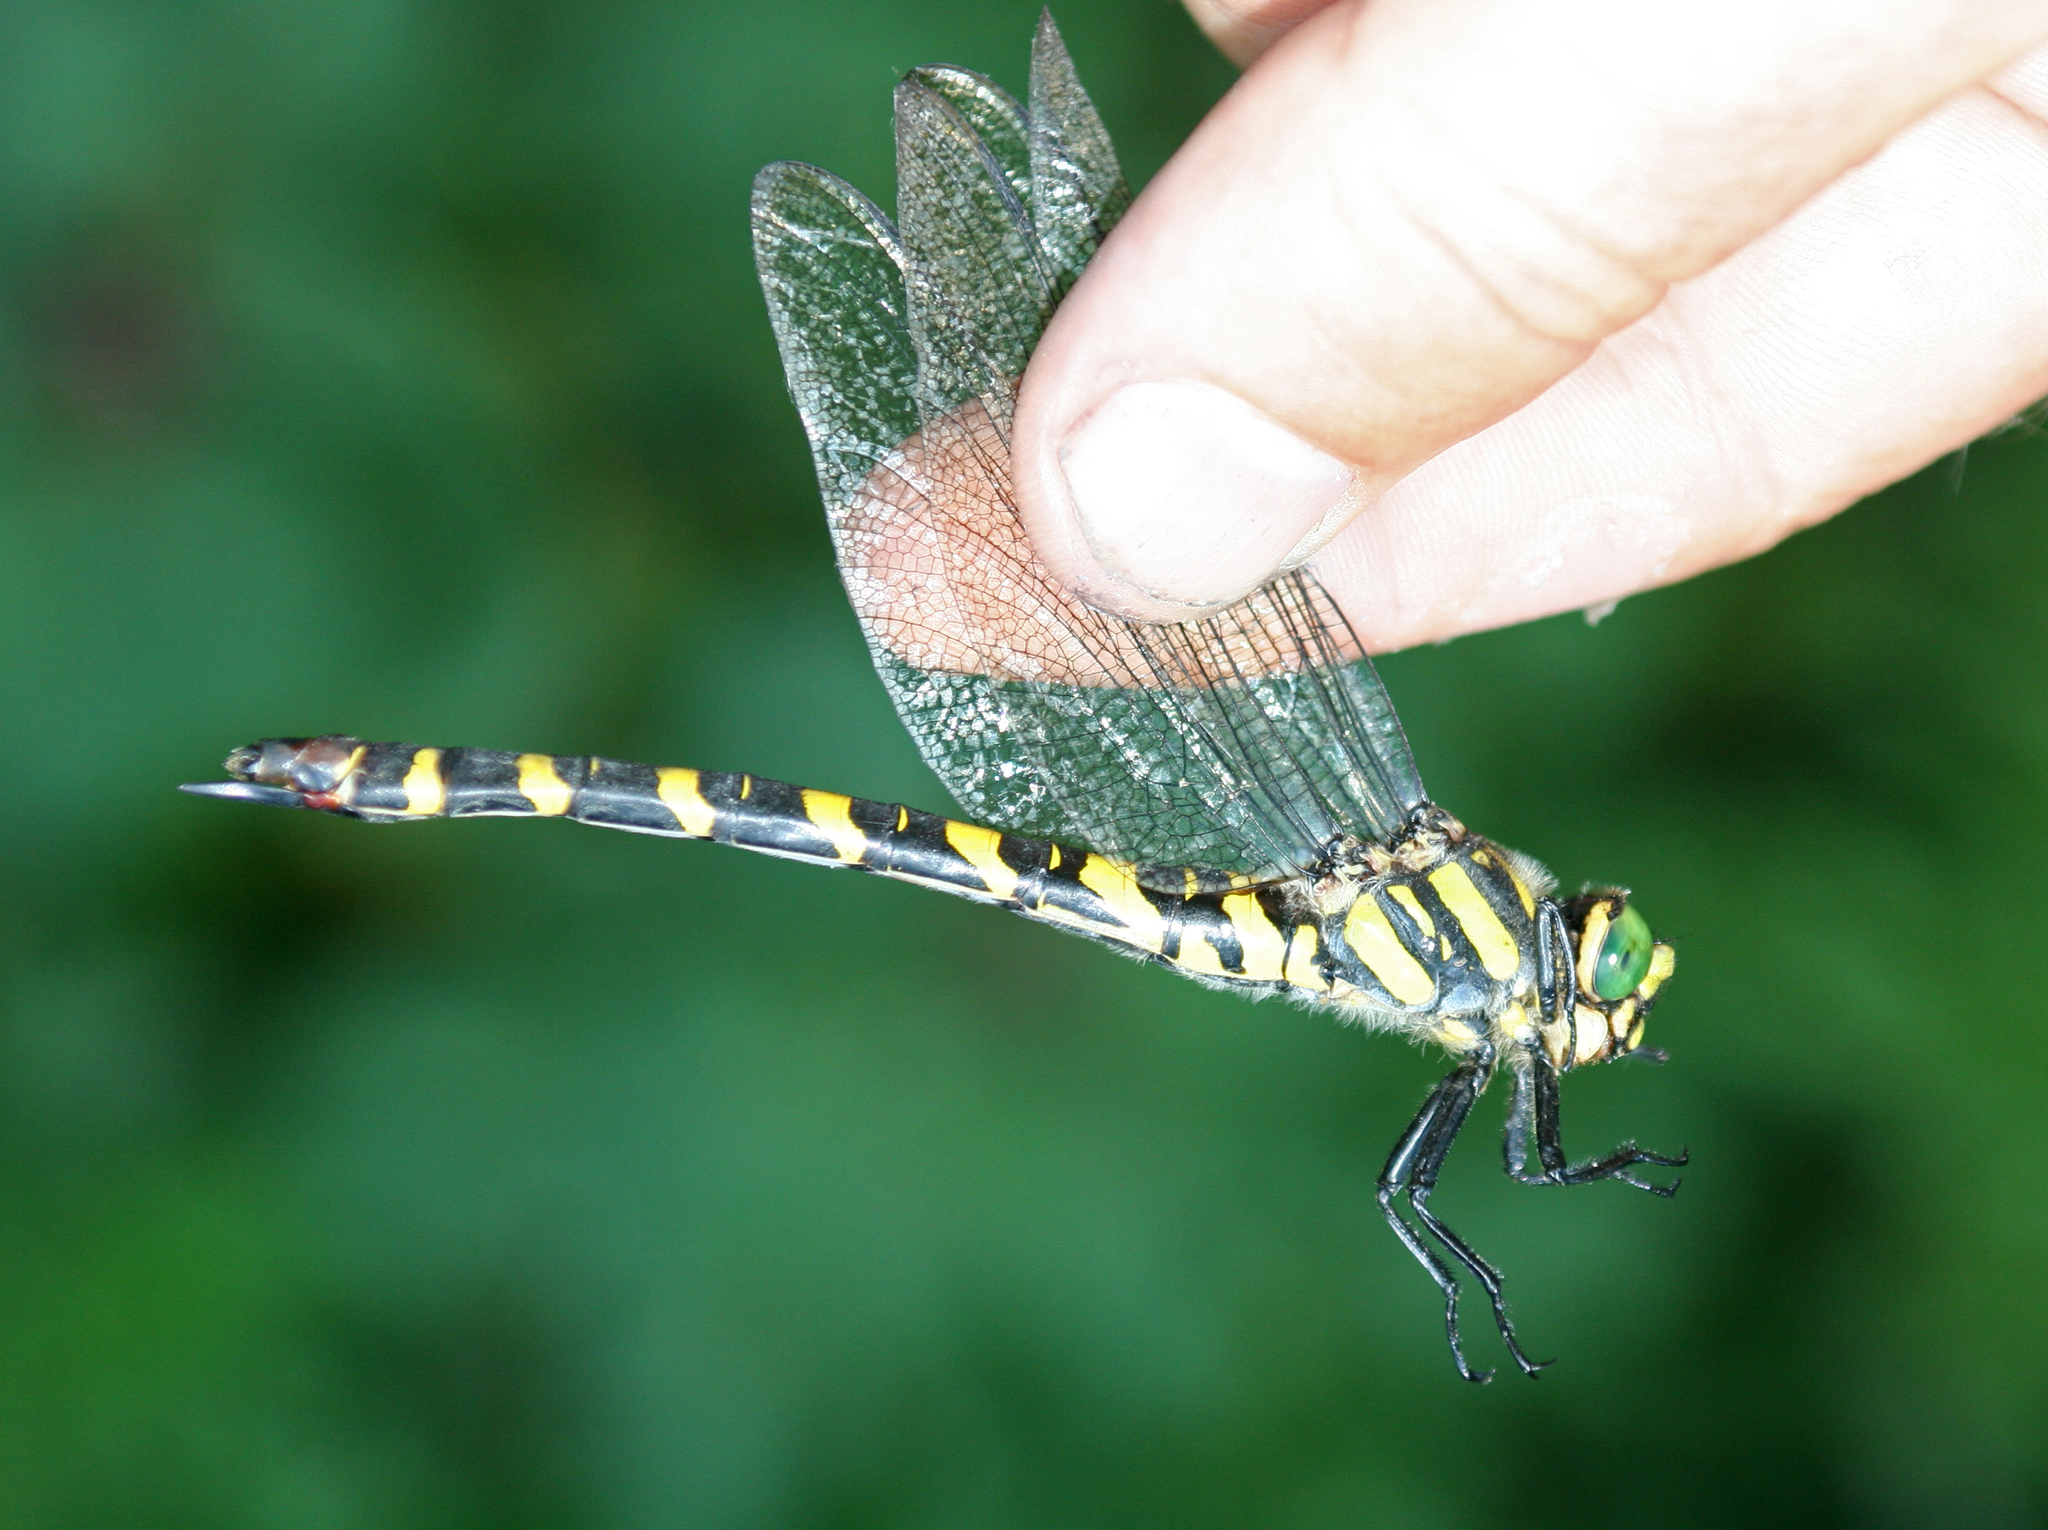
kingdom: Animalia
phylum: Arthropoda
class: Insecta
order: Odonata
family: Cordulegastridae
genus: Cordulegaster
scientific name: Cordulegaster picta
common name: Turkish goldenring
